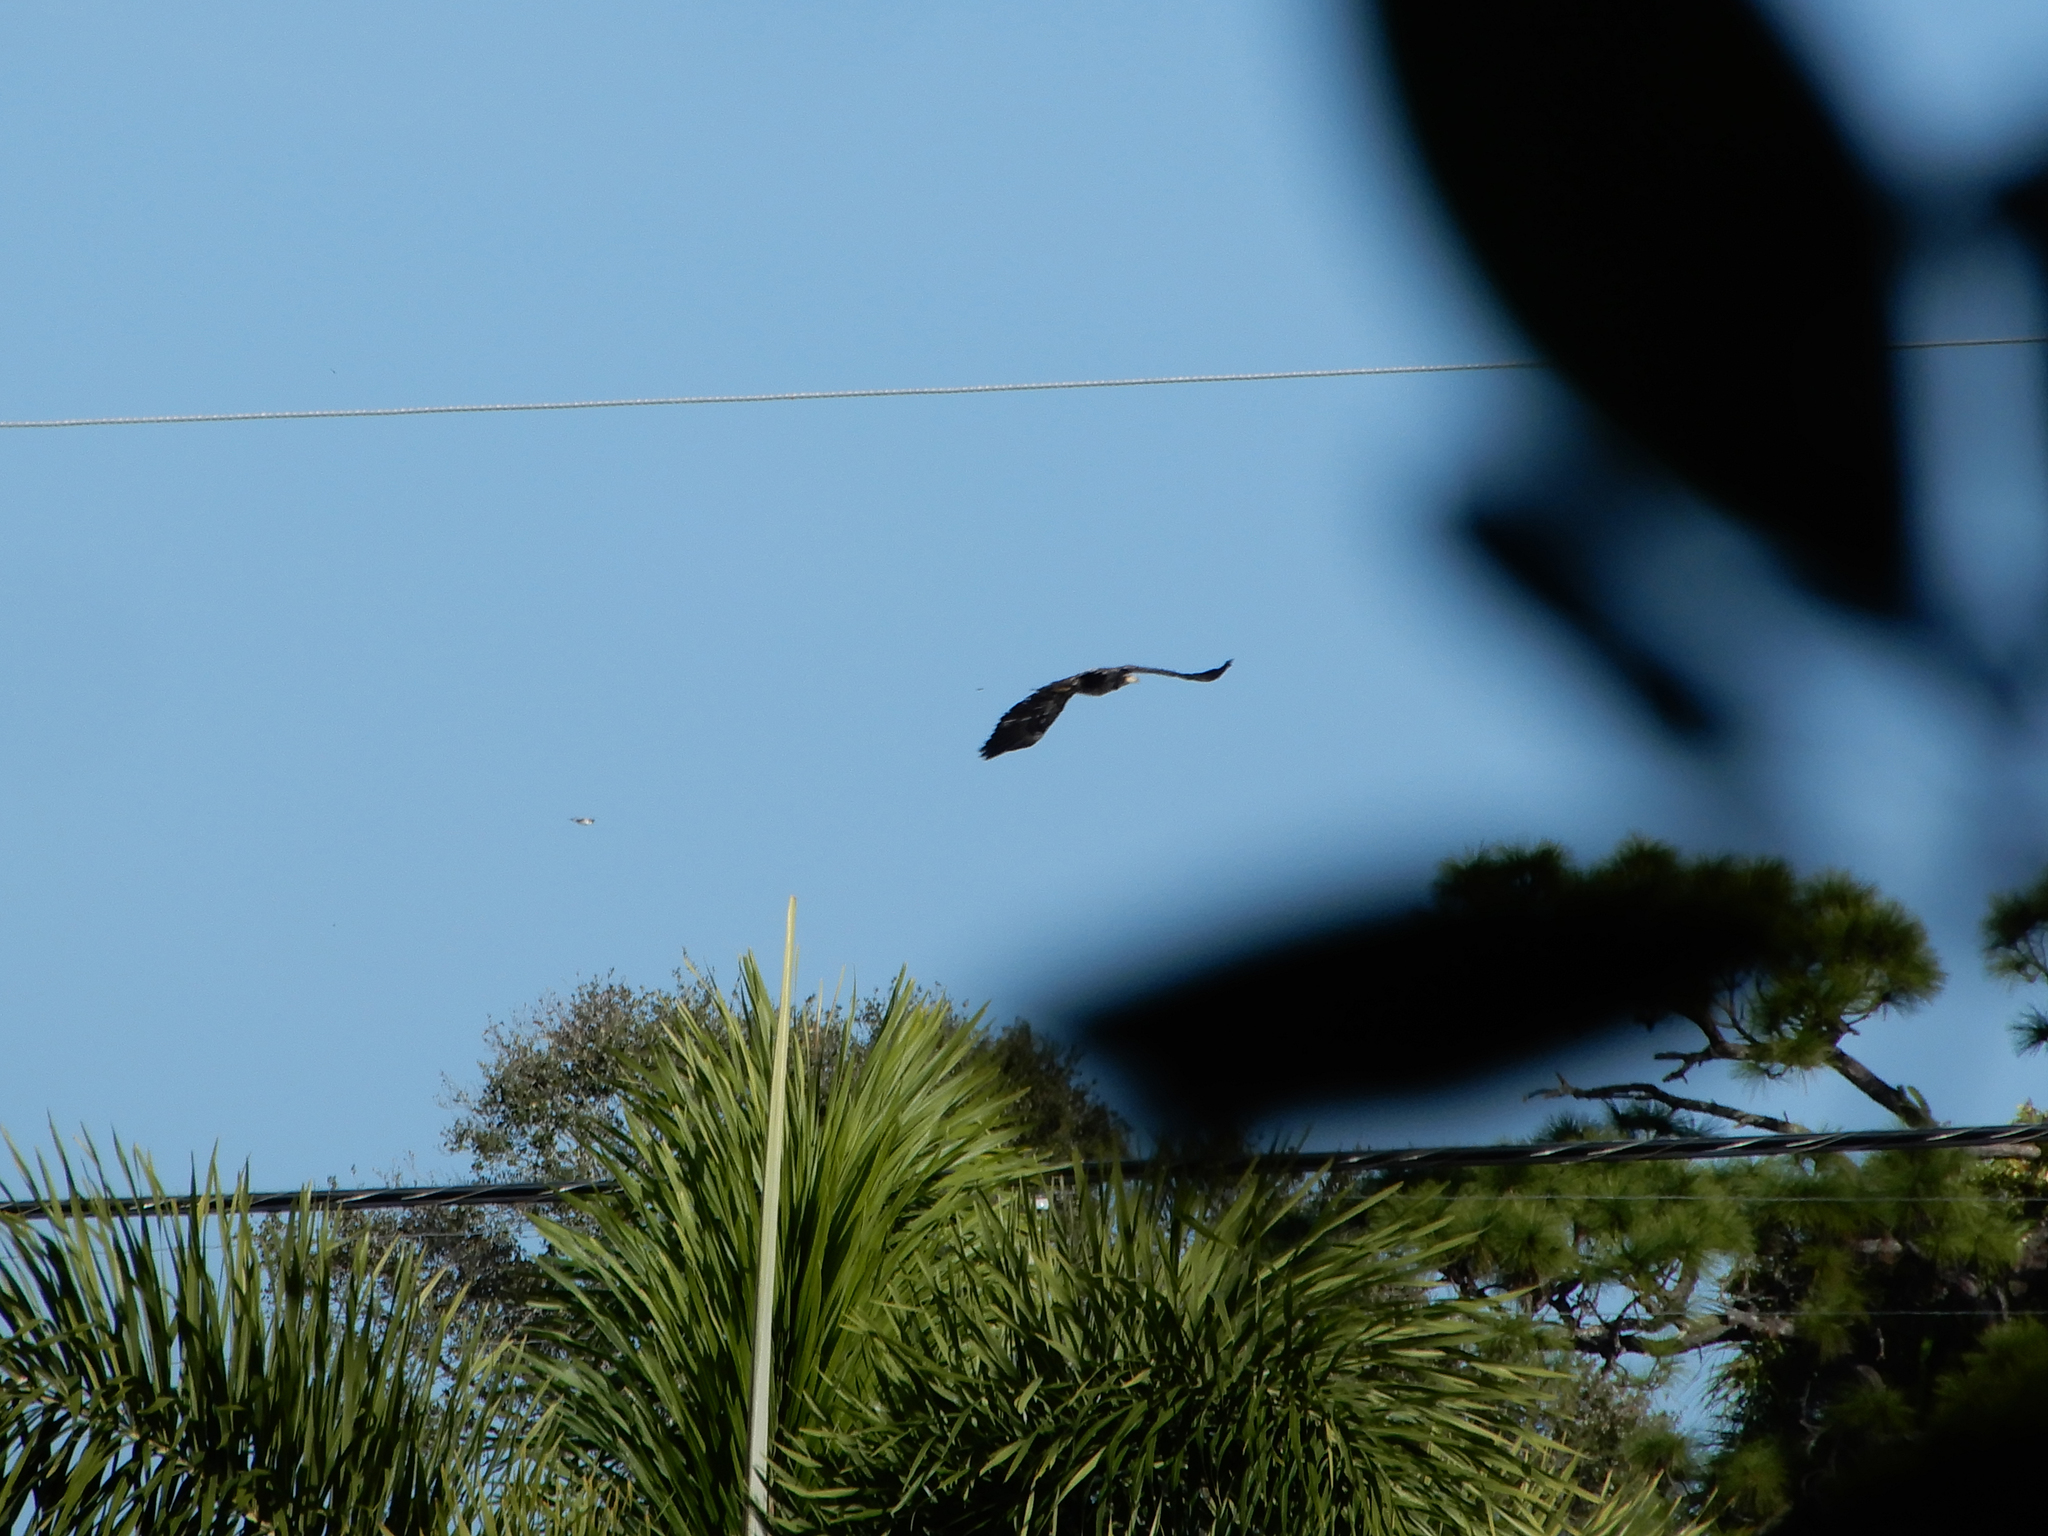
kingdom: Animalia
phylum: Chordata
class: Aves
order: Accipitriformes
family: Accipitridae
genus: Haliaeetus
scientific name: Haliaeetus leucocephalus
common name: Bald eagle
